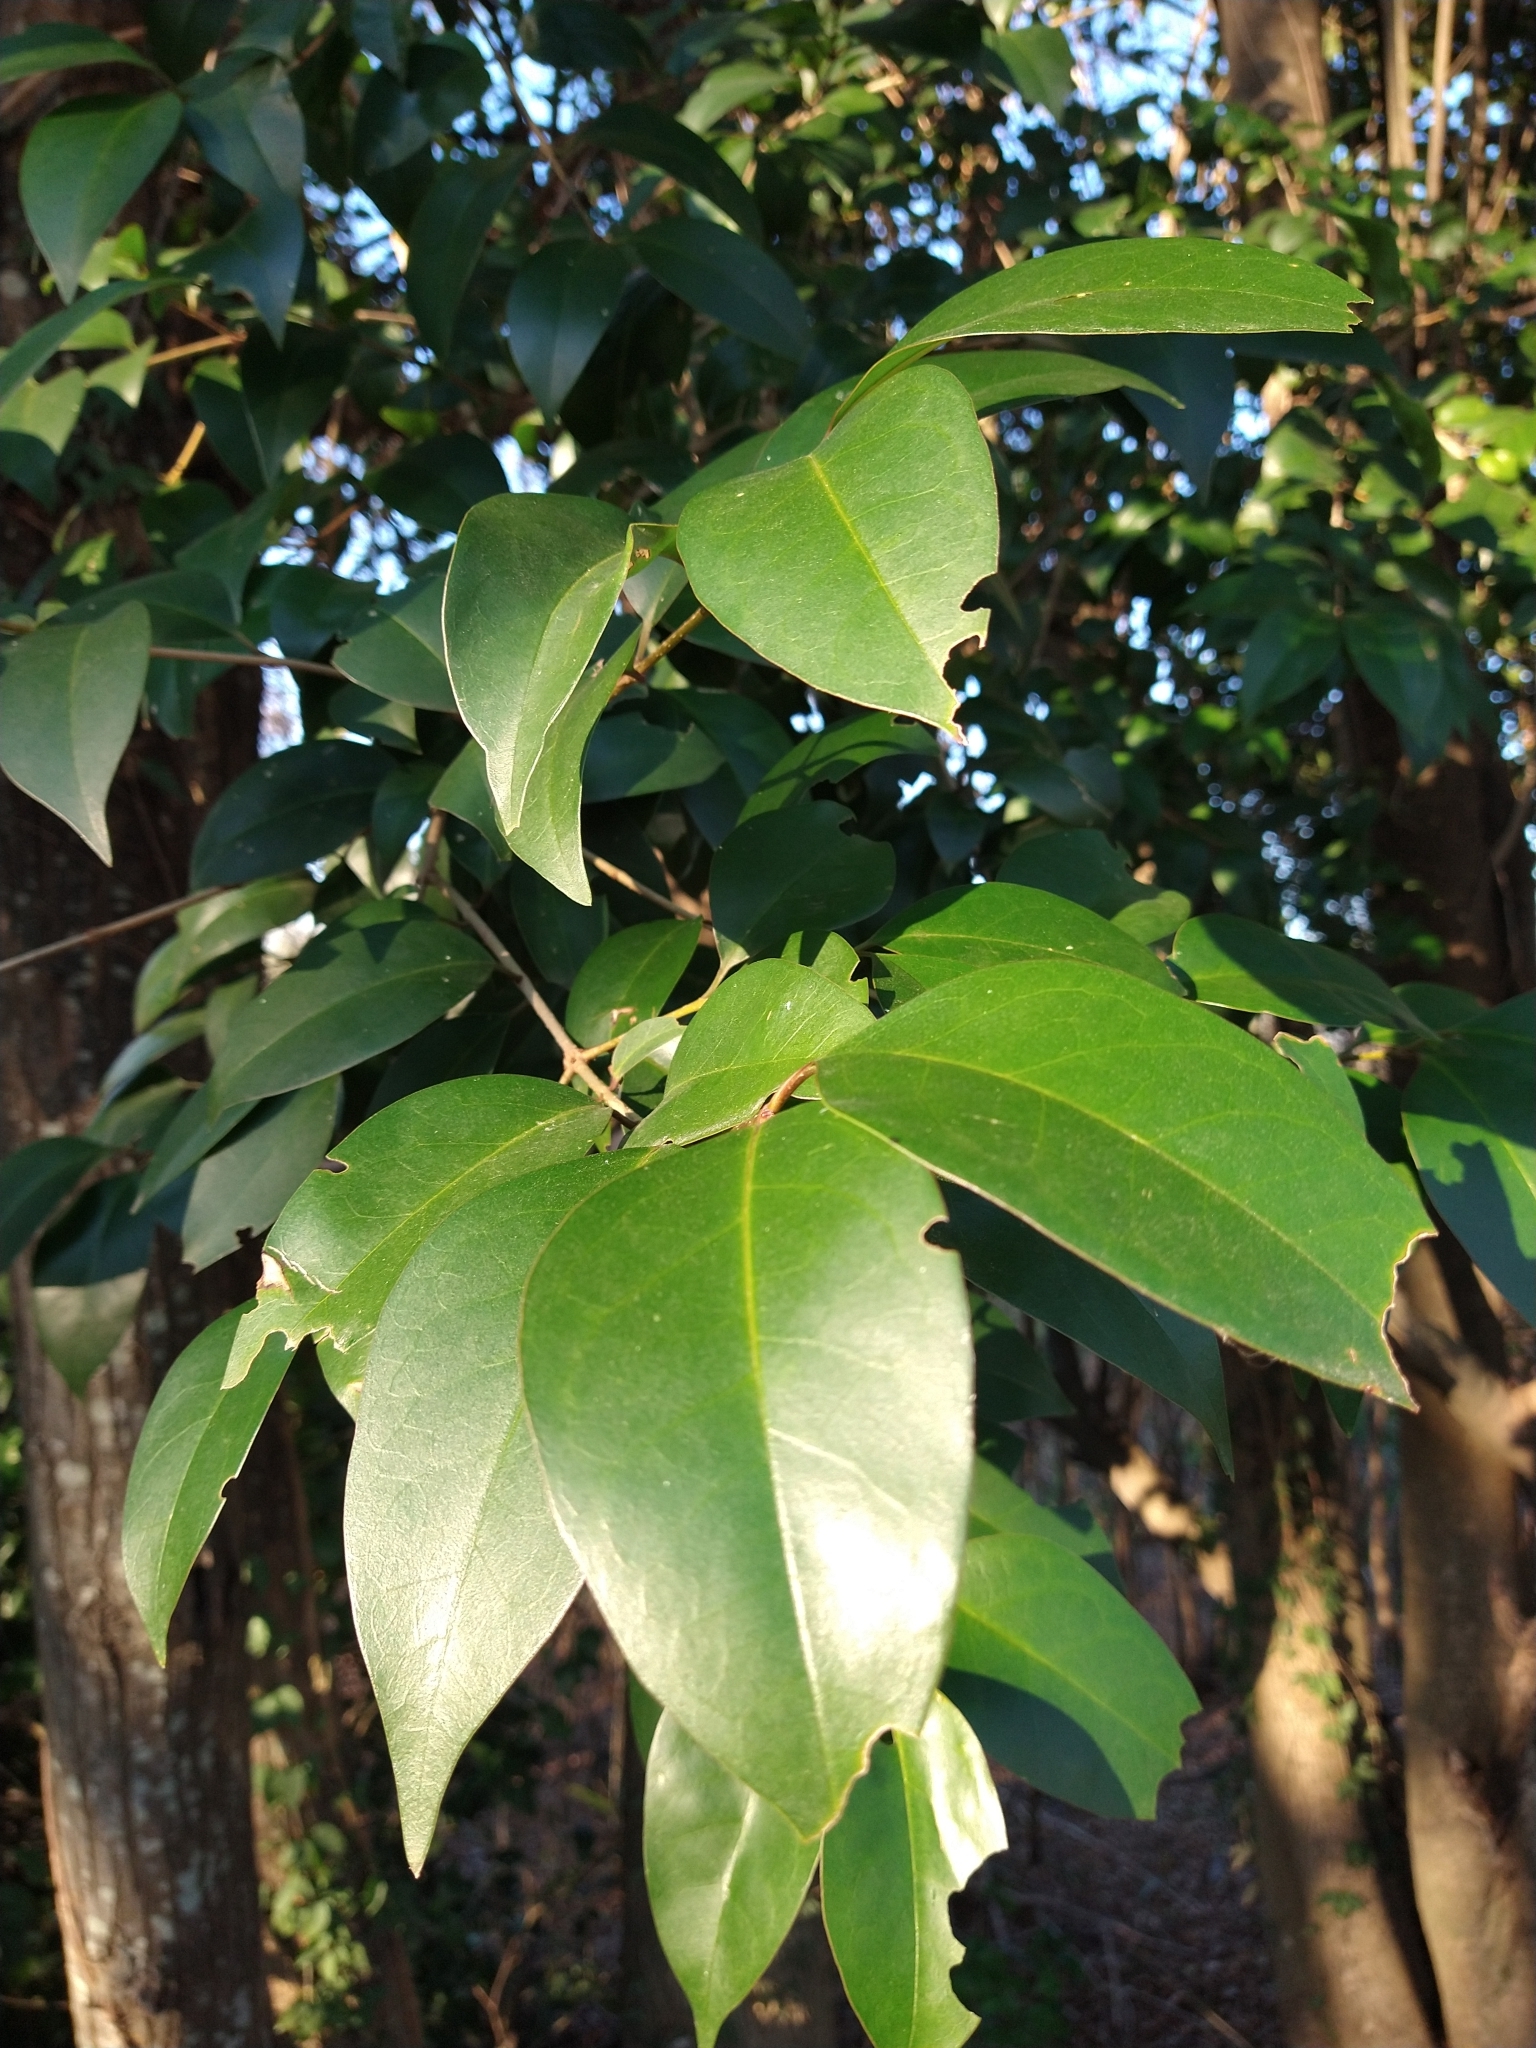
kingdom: Plantae
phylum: Tracheophyta
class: Magnoliopsida
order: Lamiales
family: Oleaceae
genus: Ligustrum
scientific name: Ligustrum lucidum
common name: Glossy privet
